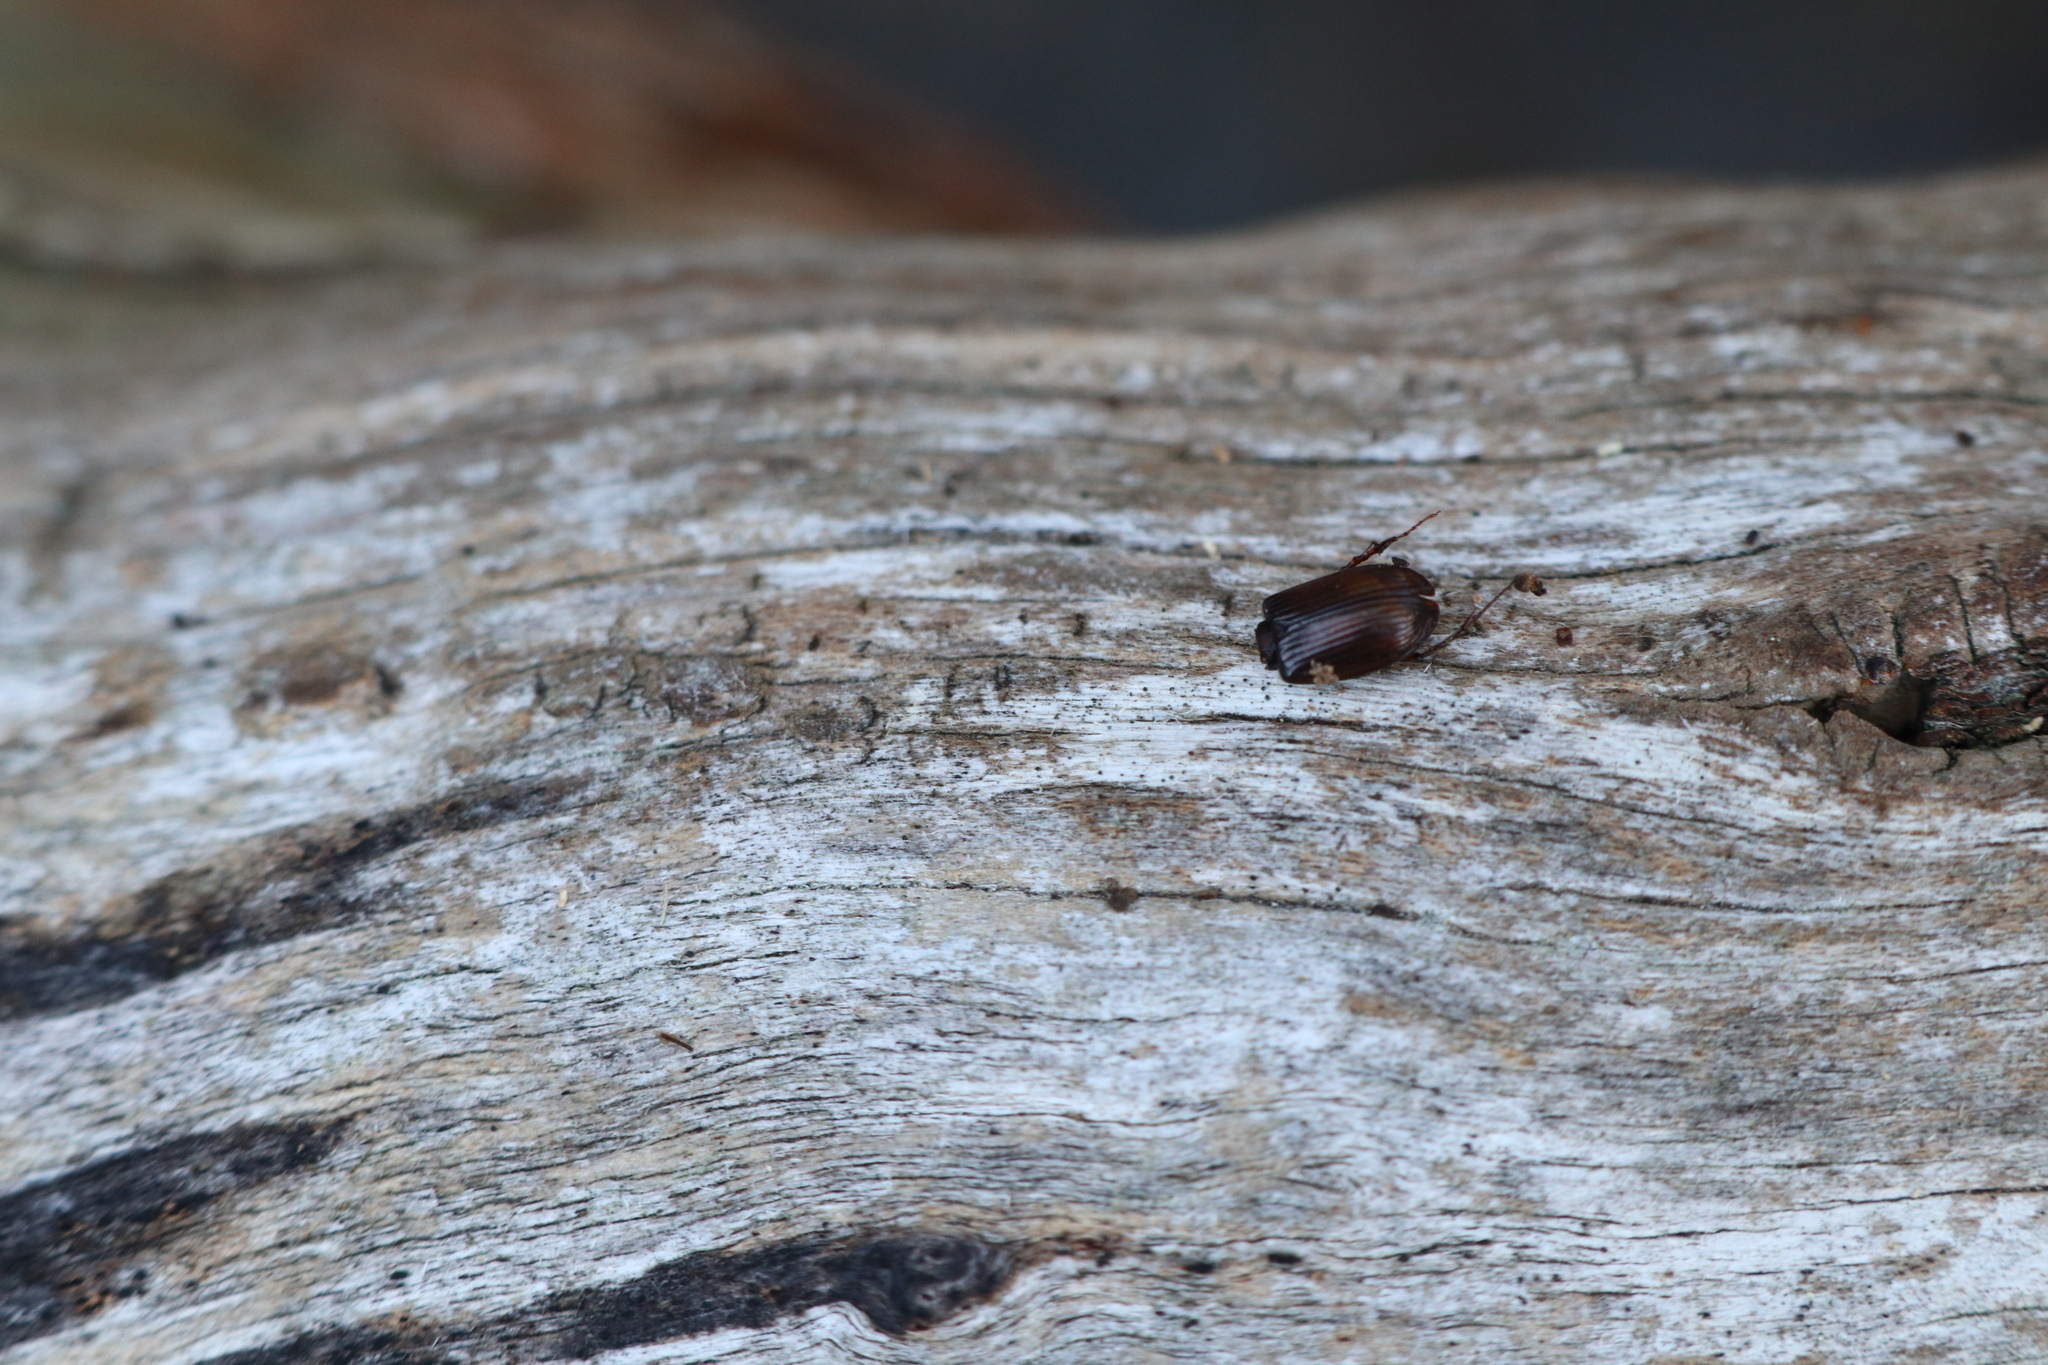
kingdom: Animalia
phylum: Arthropoda
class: Insecta
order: Coleoptera
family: Scarabaeidae
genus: Acrossidius
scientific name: Acrossidius tasmaniae
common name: Black-headed pasture cockchafer
